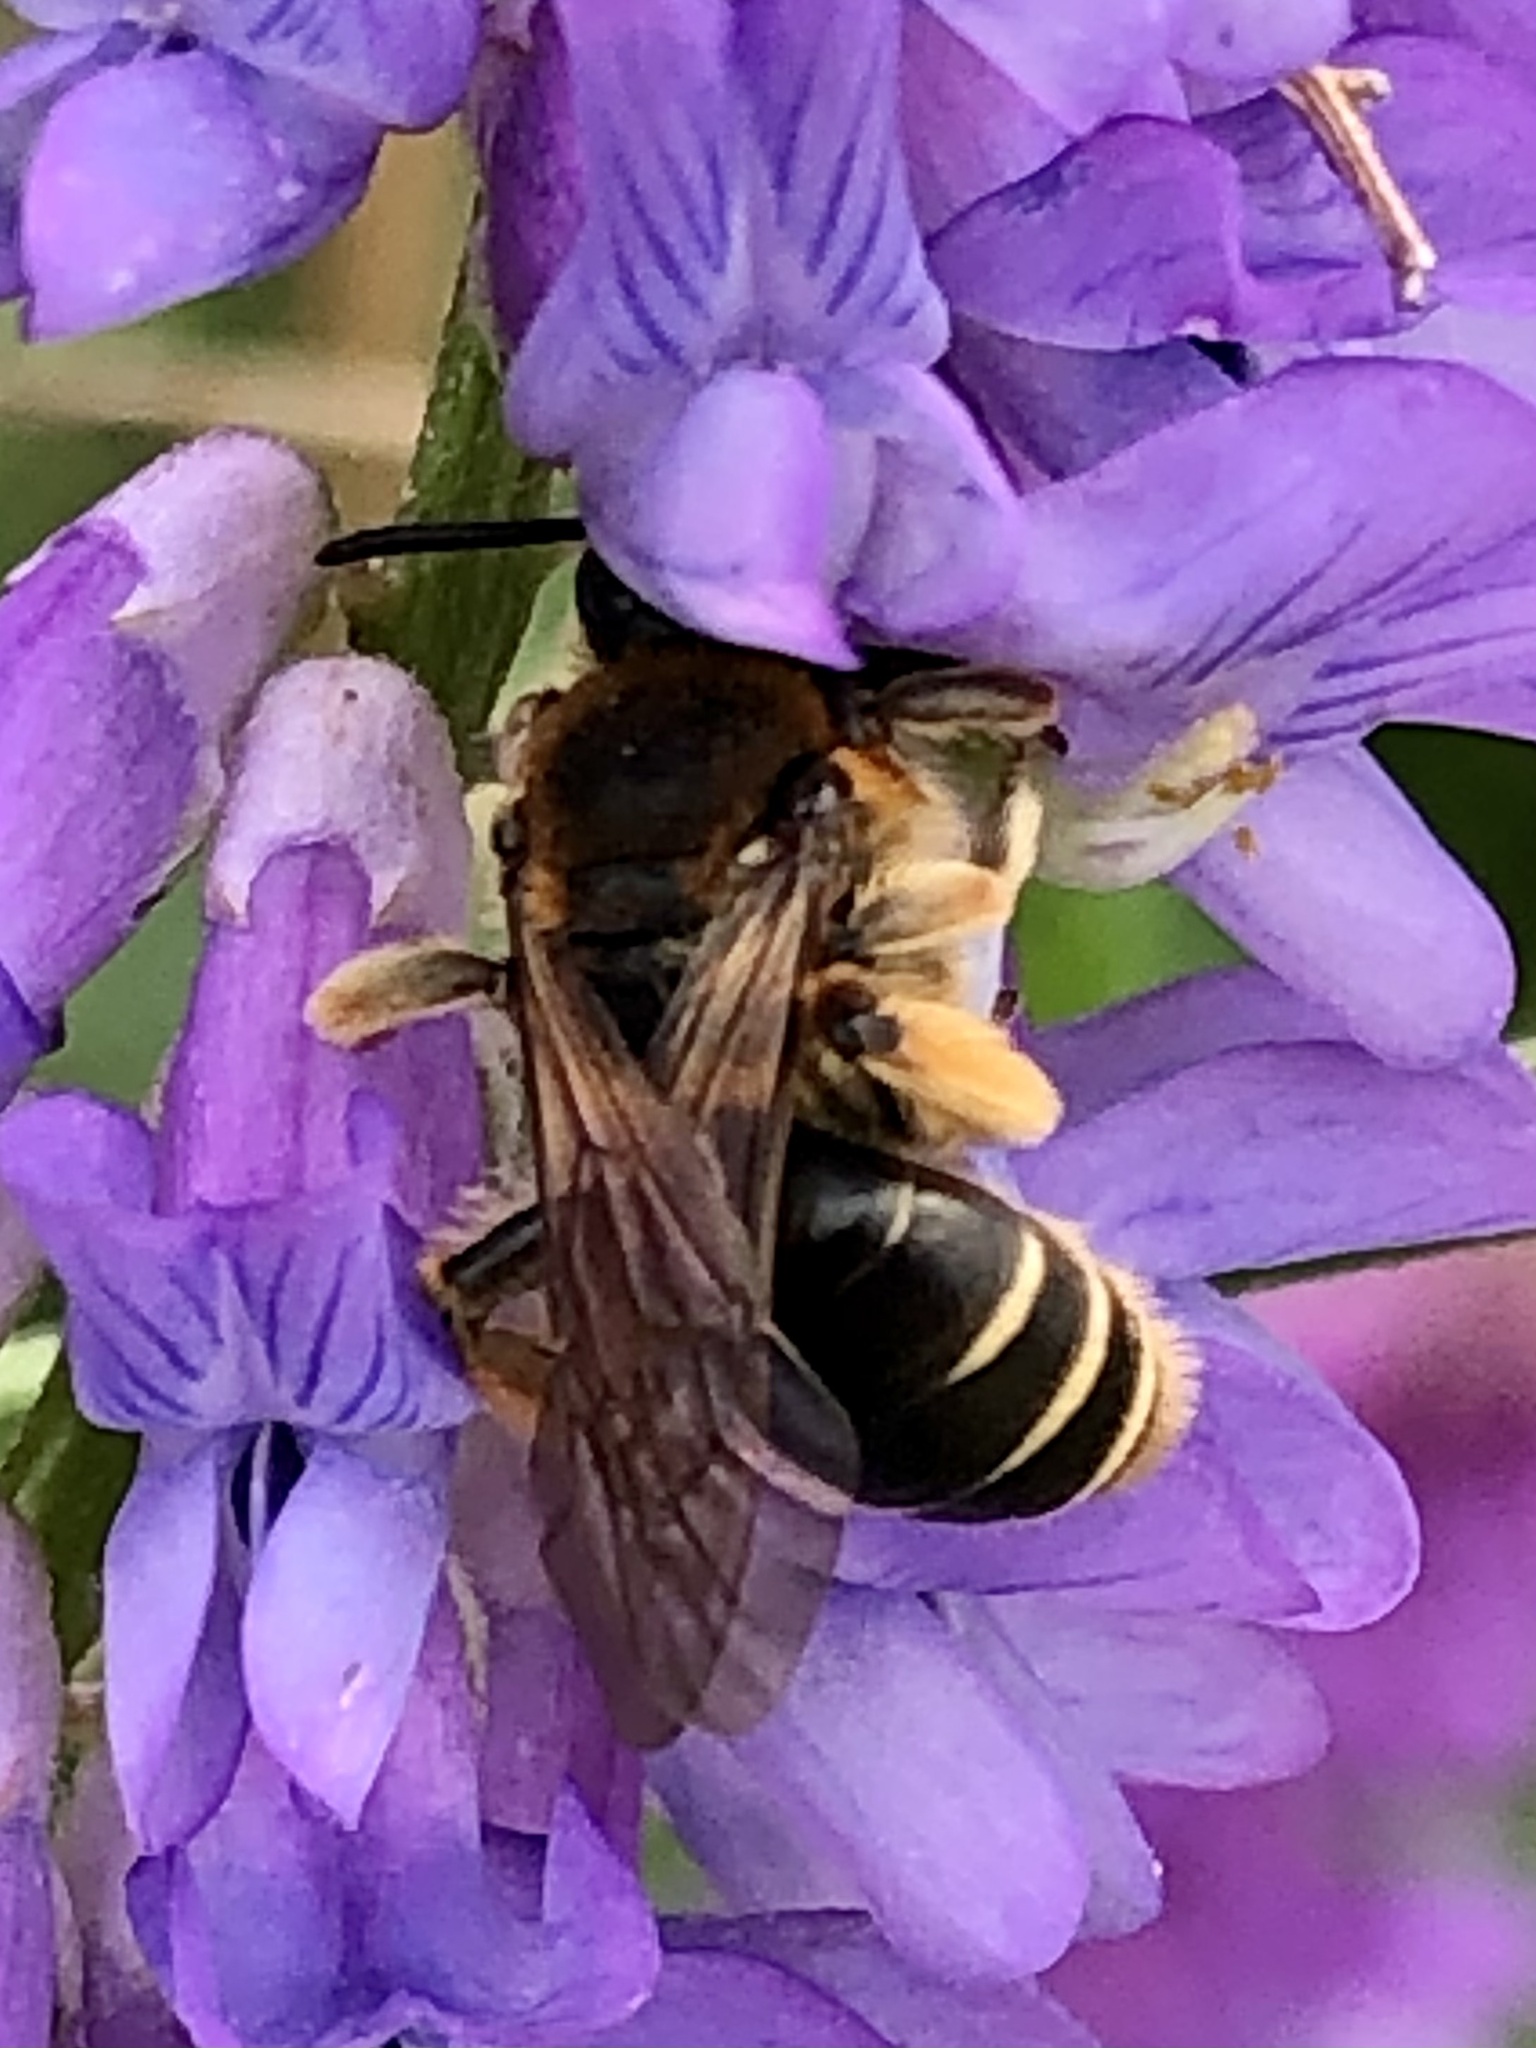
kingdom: Animalia
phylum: Arthropoda
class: Insecta
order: Hymenoptera
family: Andrenidae
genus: Andrena
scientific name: Andrena wilkella
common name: Wilke's mining bee
